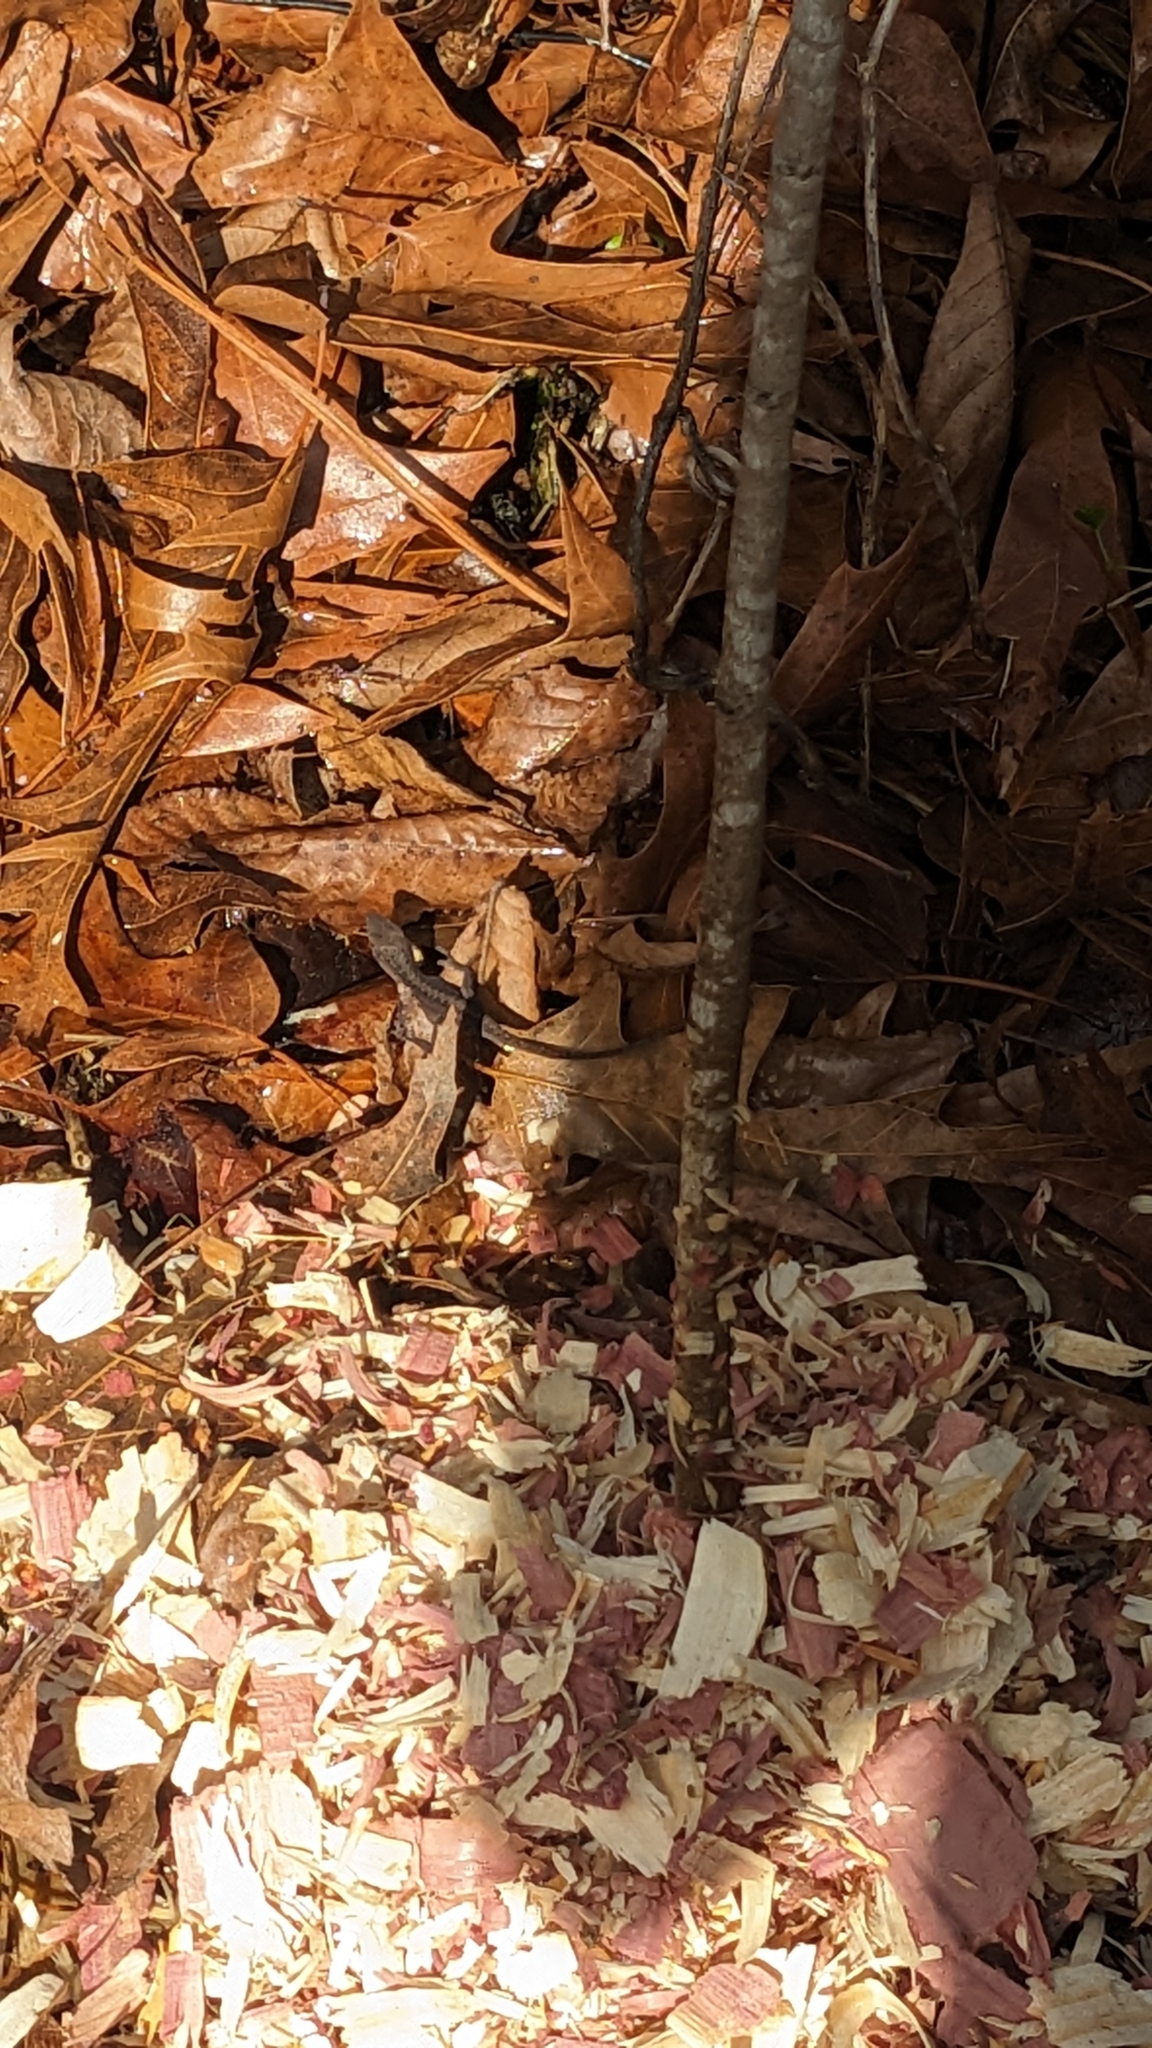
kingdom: Animalia
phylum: Chordata
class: Squamata
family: Dactyloidae
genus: Anolis
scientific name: Anolis carolinensis
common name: Green anole
